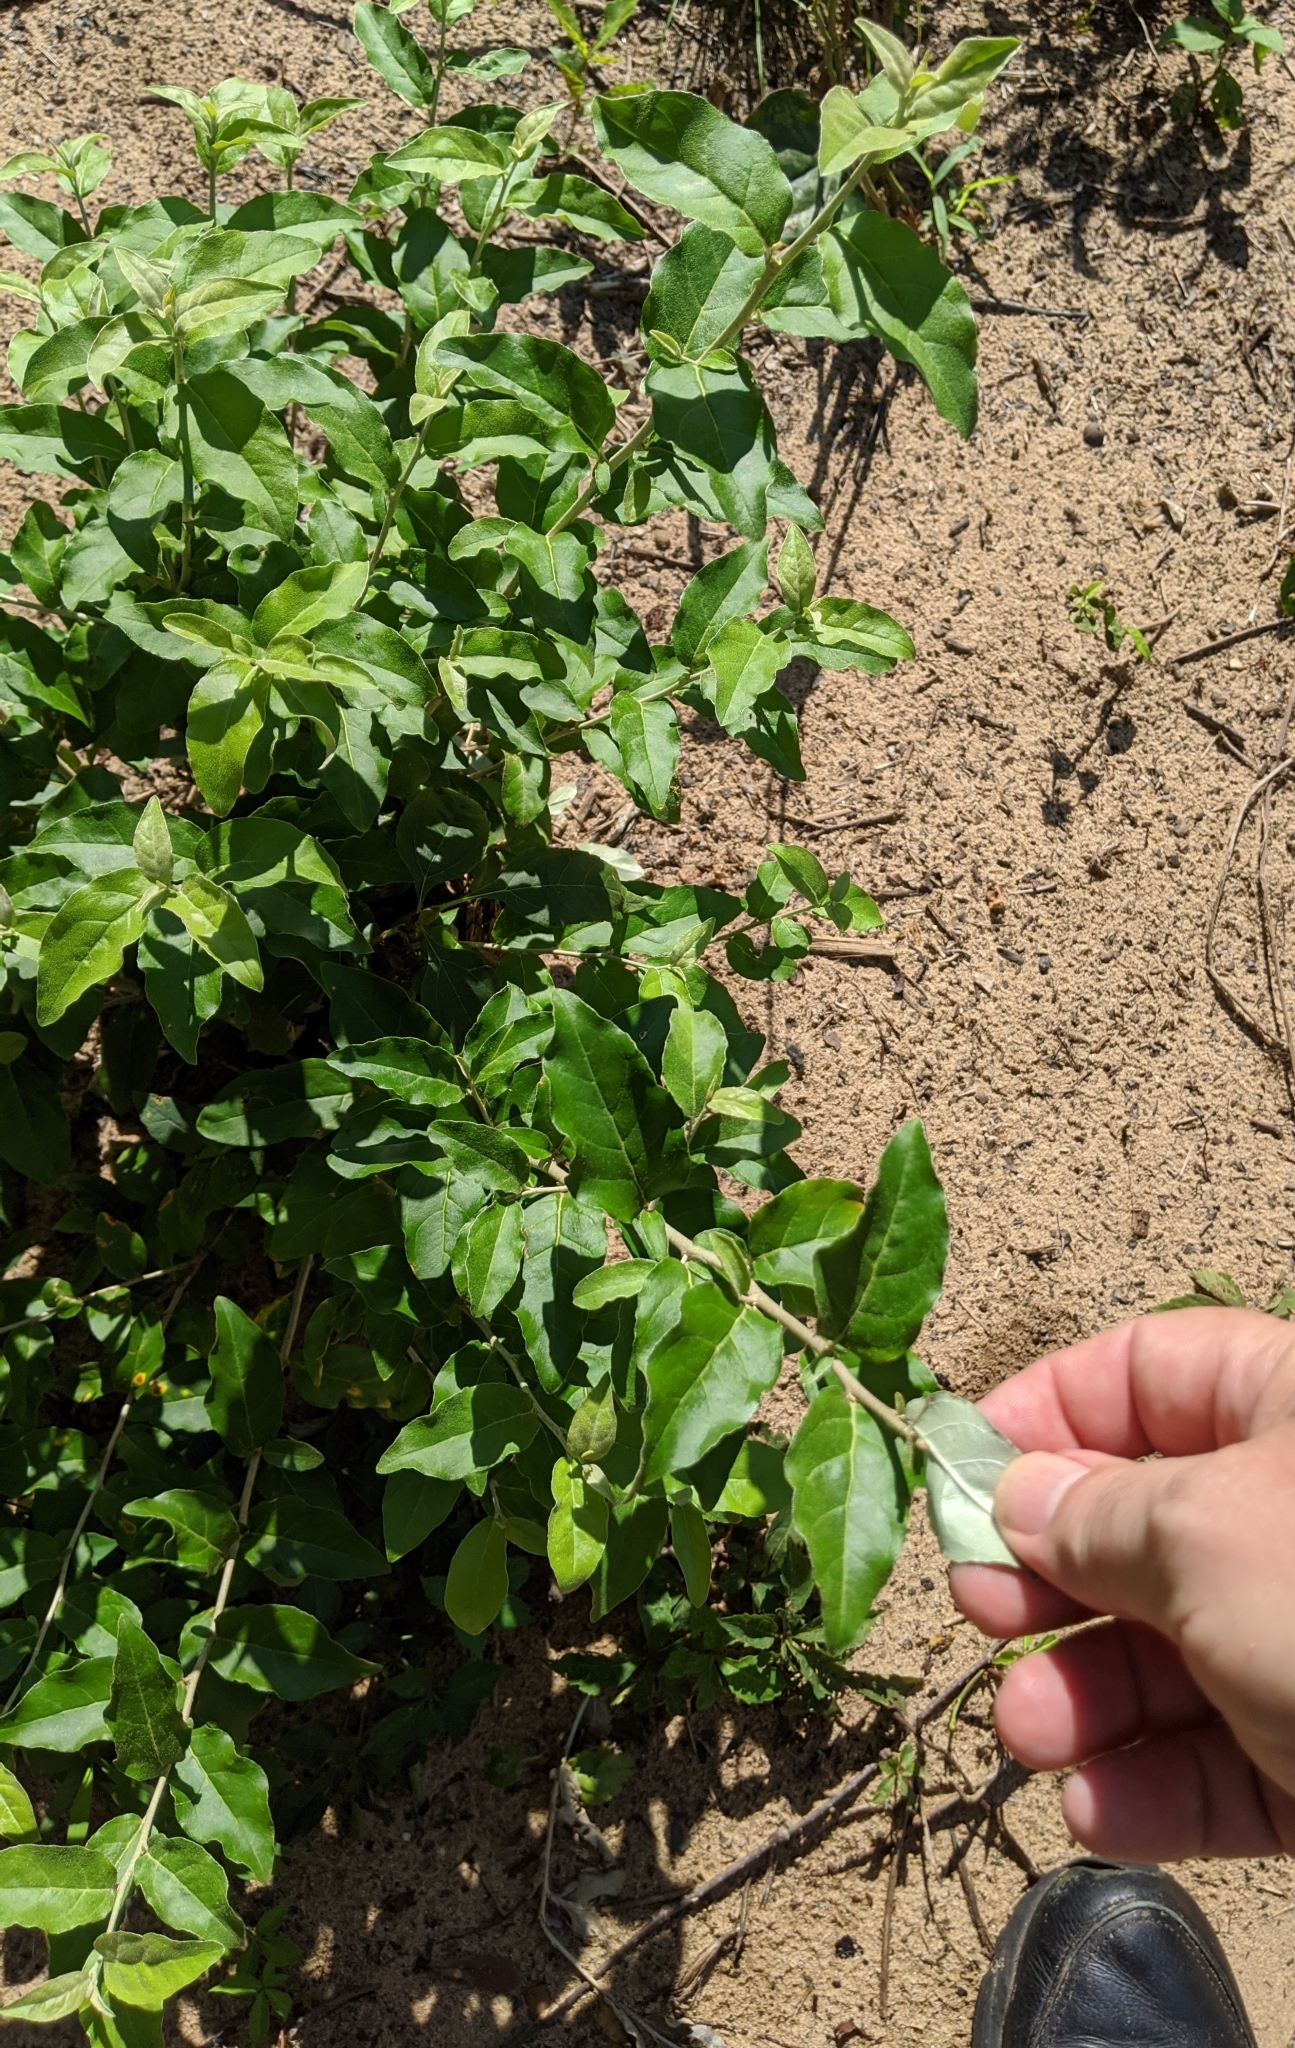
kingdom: Plantae
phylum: Tracheophyta
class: Magnoliopsida
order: Lamiales
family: Oleaceae
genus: Ligustrum
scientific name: Ligustrum sinense
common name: Chinese privet
